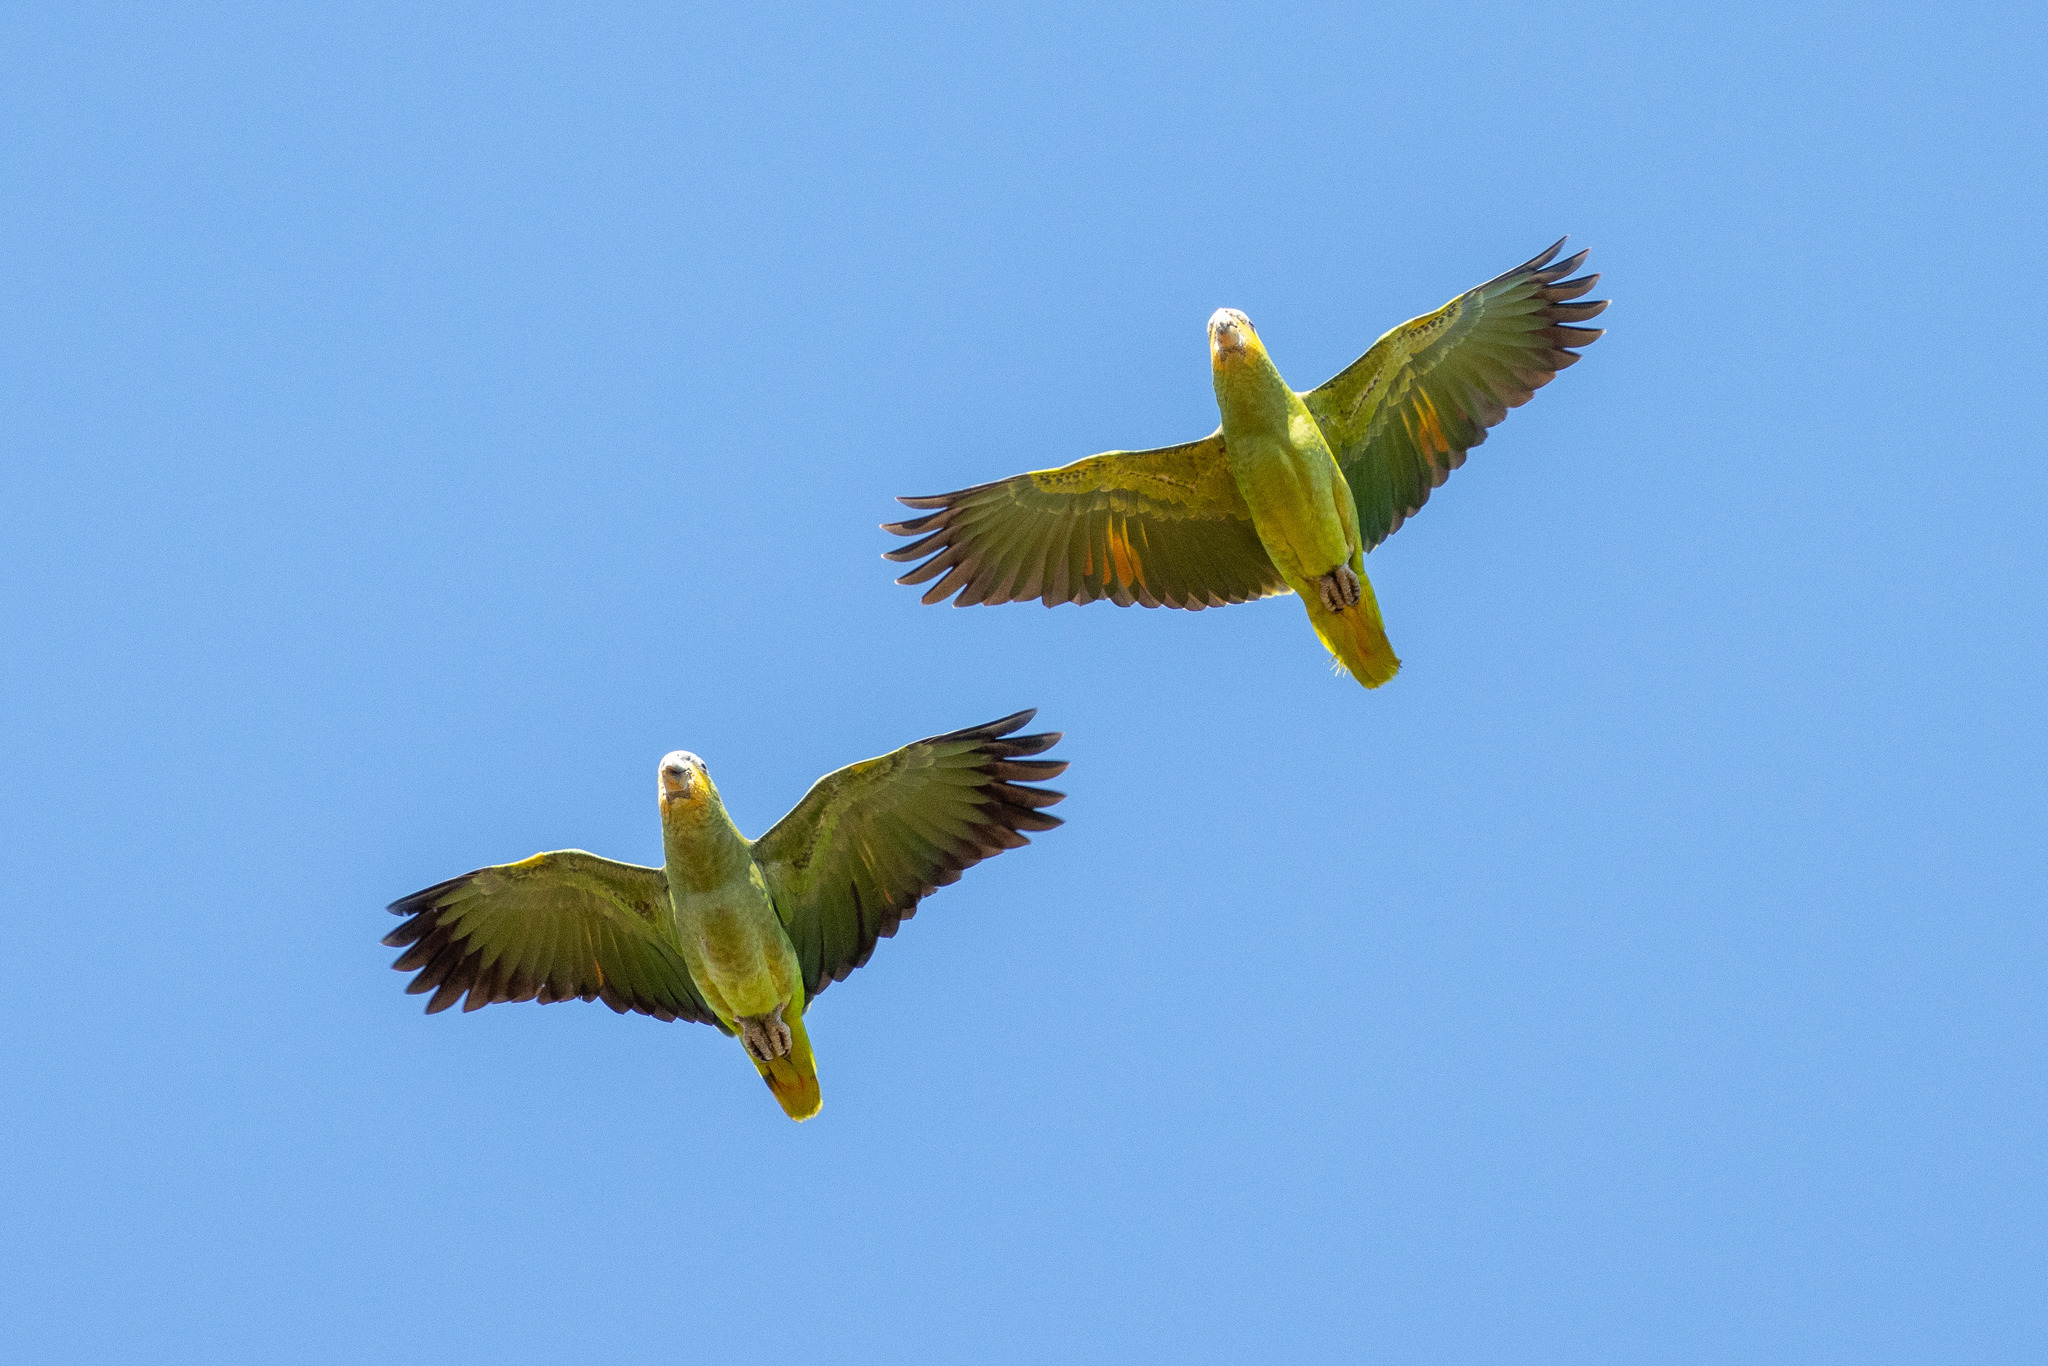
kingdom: Animalia
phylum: Chordata
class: Aves
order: Psittaciformes
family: Psittacidae
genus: Amazona
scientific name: Amazona amazonica
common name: Orange-winged amazon
